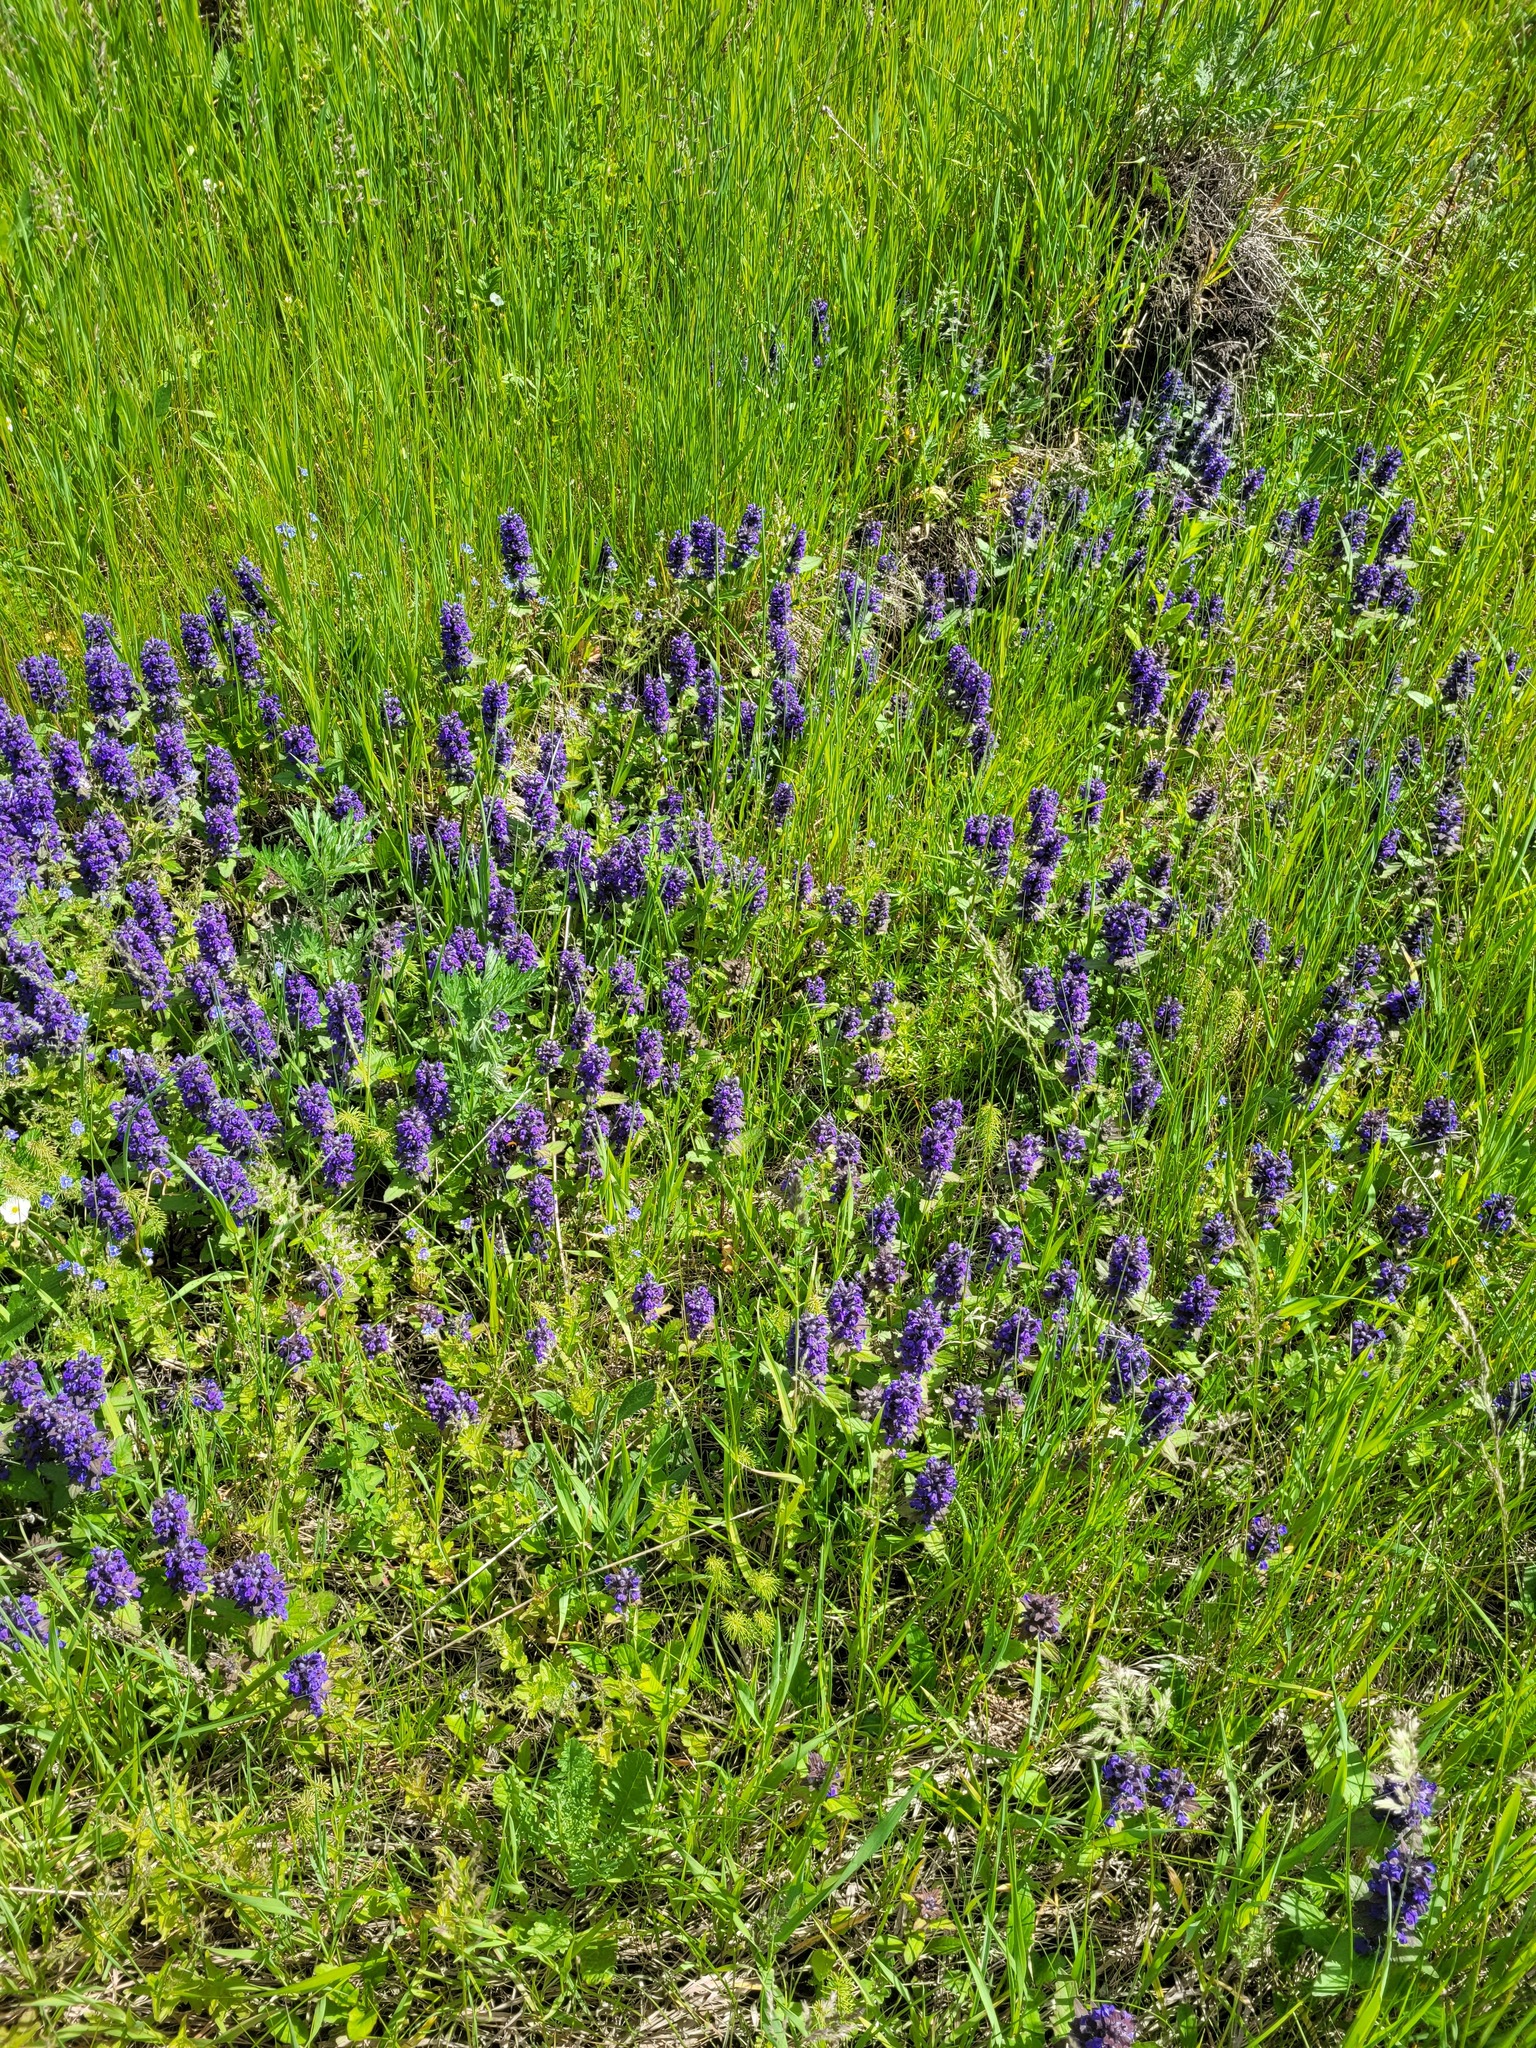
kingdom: Plantae
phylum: Tracheophyta
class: Magnoliopsida
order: Lamiales
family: Lamiaceae
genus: Ajuga
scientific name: Ajuga genevensis
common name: Blue bugle
